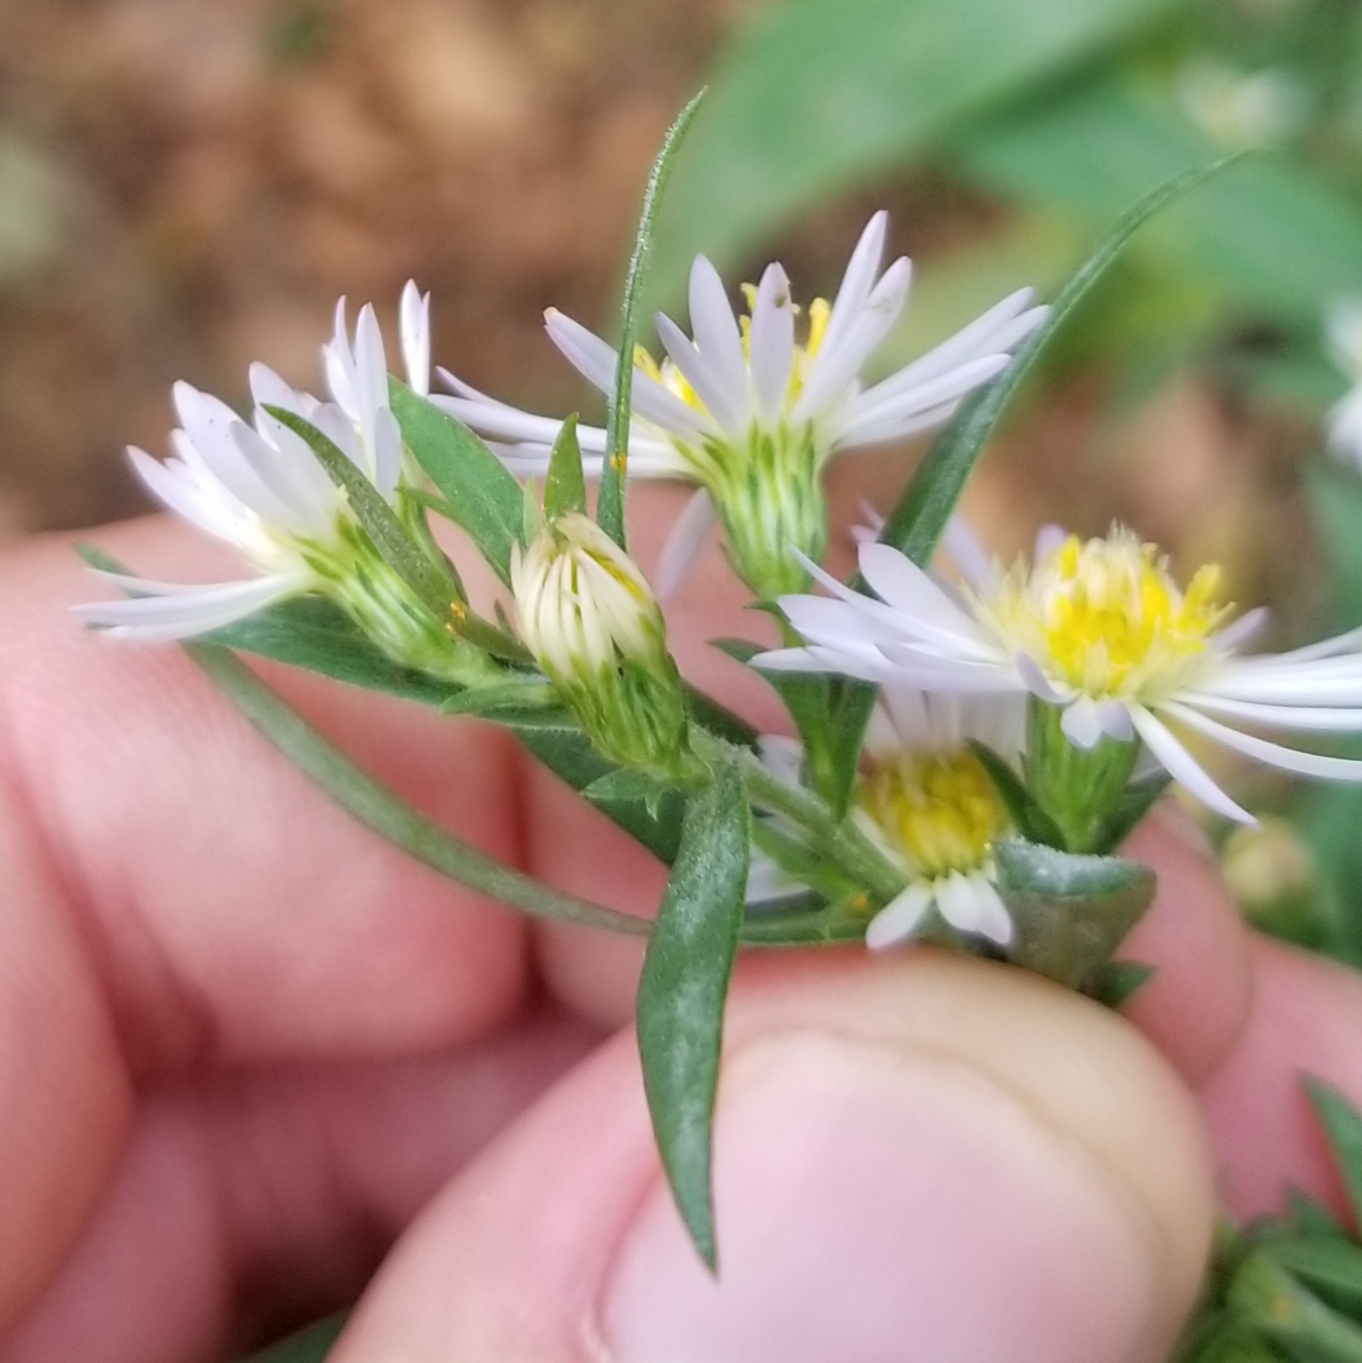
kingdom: Plantae
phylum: Tracheophyta
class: Magnoliopsida
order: Asterales
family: Asteraceae
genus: Symphyotrichum
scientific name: Symphyotrichum lanceolatum
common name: Panicled aster
